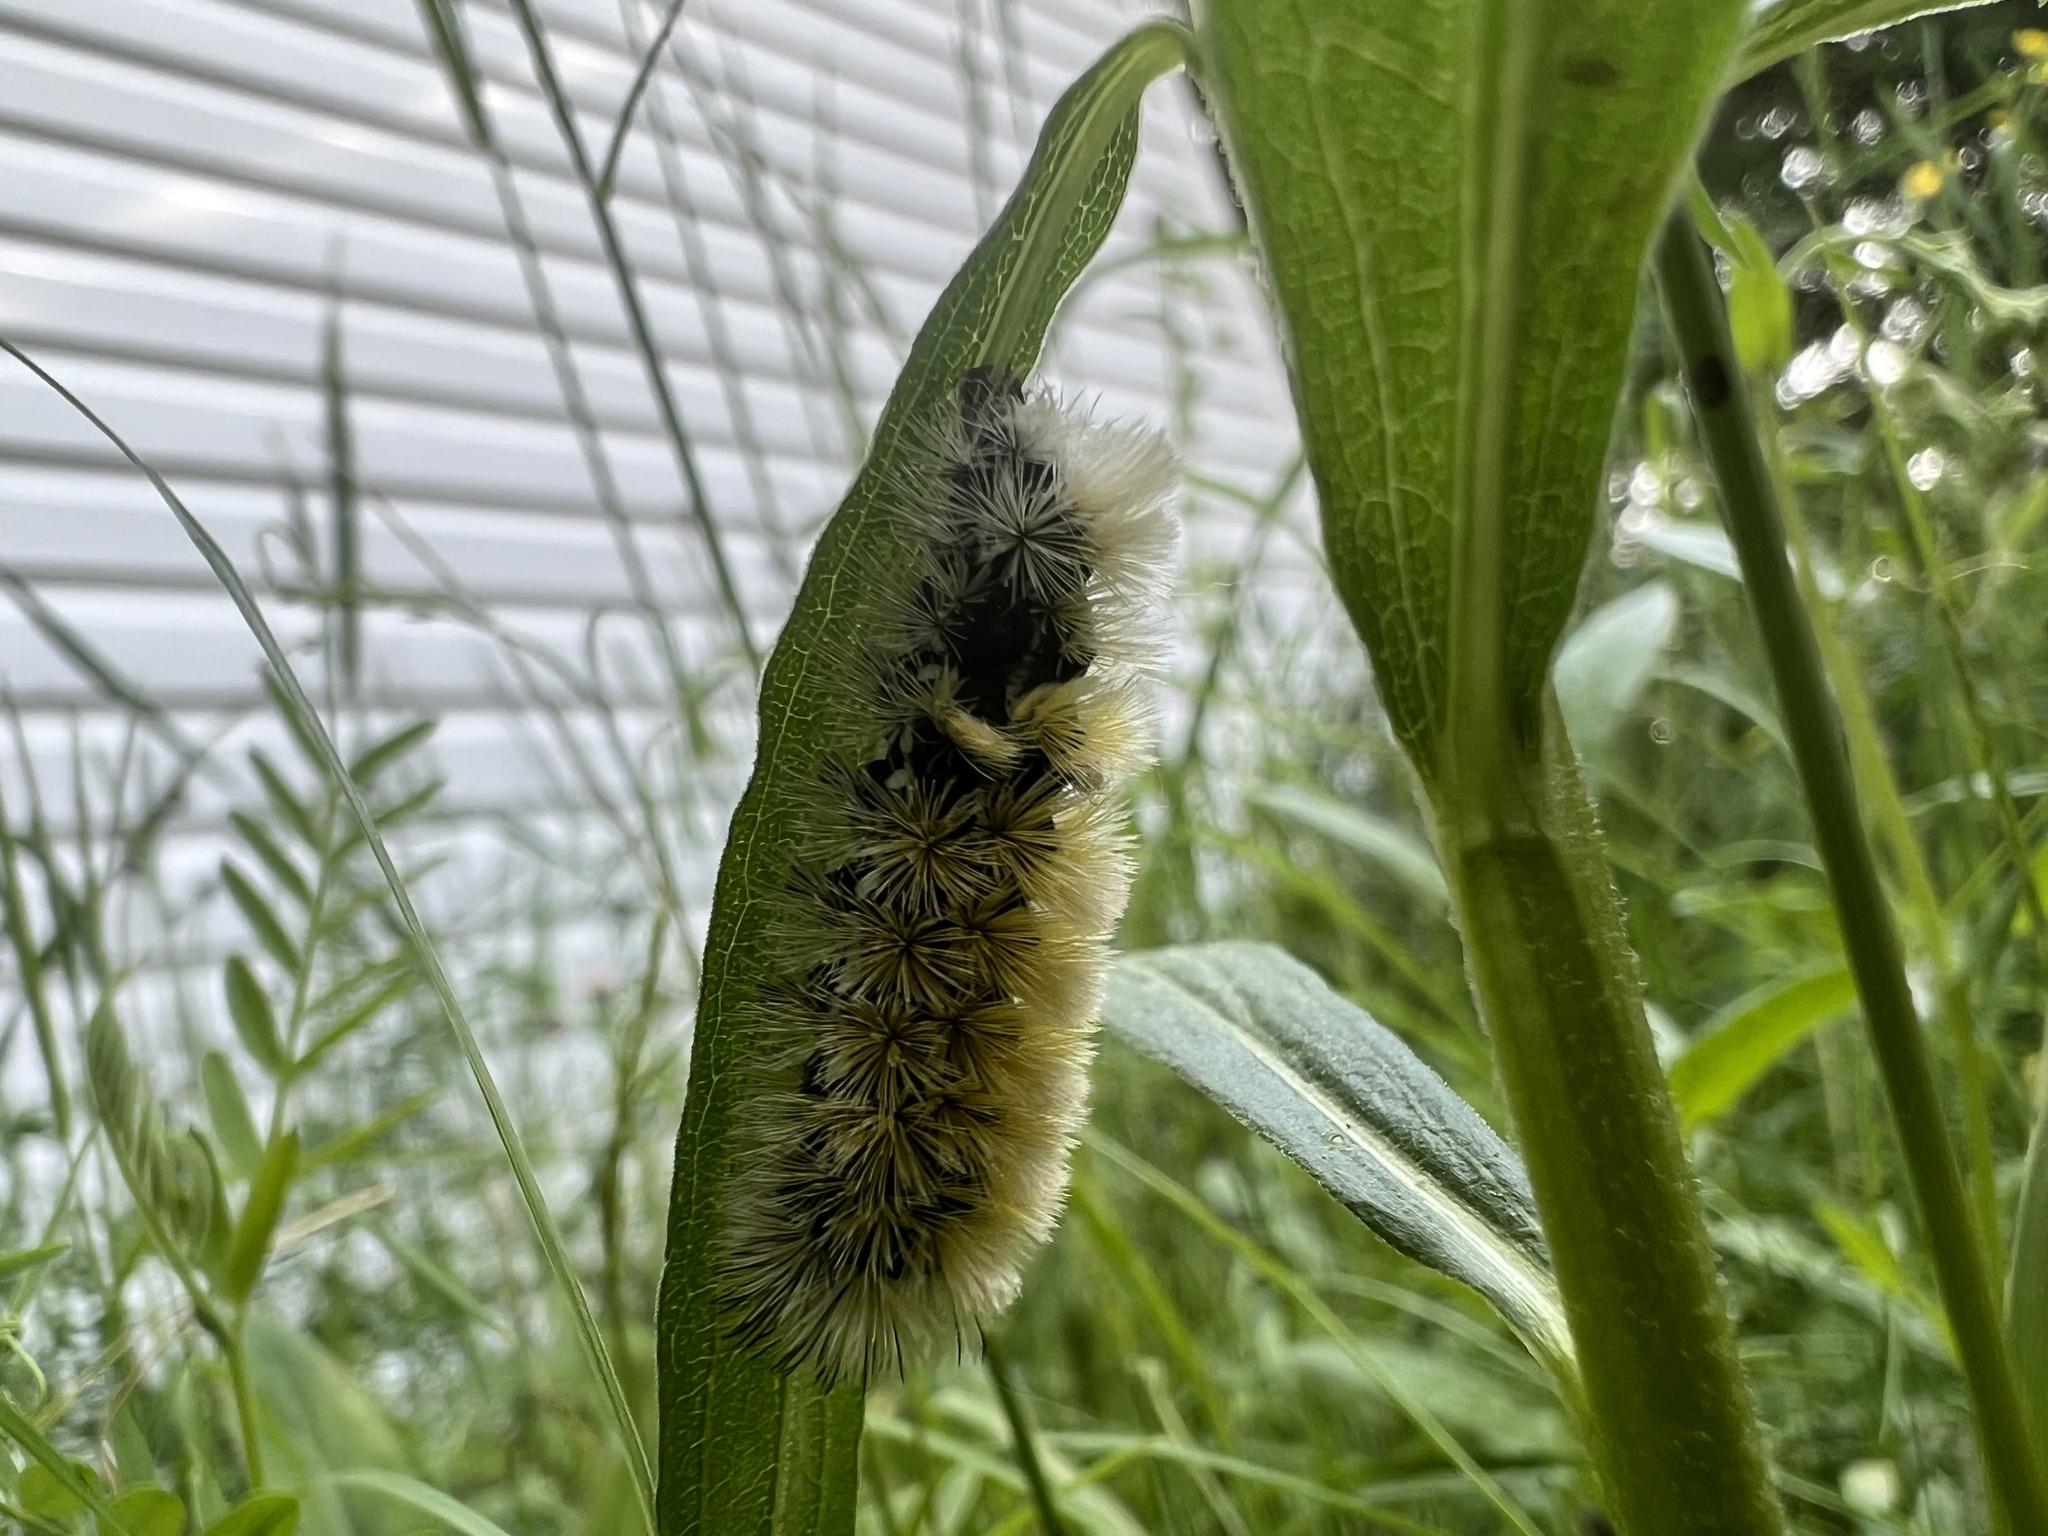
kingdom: Animalia
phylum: Arthropoda
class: Insecta
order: Lepidoptera
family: Erebidae
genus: Ctenucha
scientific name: Ctenucha virginica
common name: Virginia ctenucha moth
